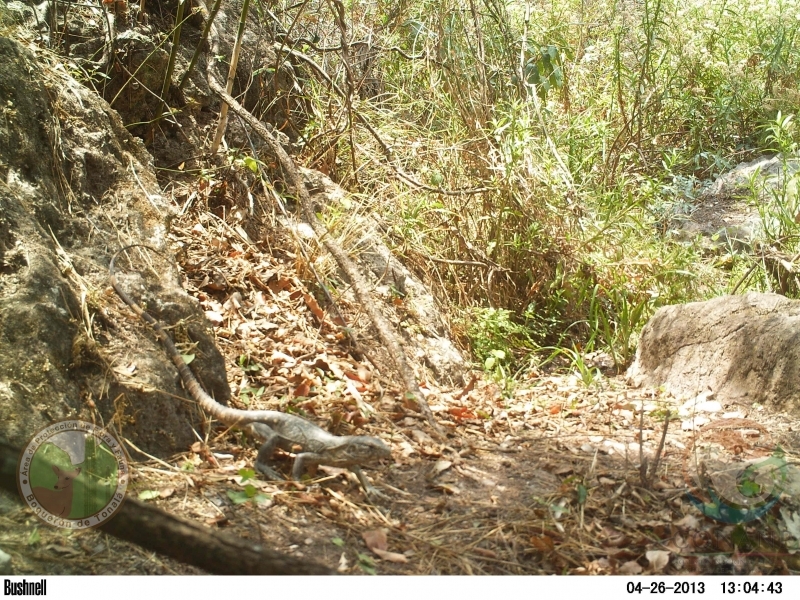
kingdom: Animalia
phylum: Chordata
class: Squamata
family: Iguanidae
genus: Ctenosaura
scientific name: Ctenosaura pectinata
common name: Guerreran spiny-tailed iguana
